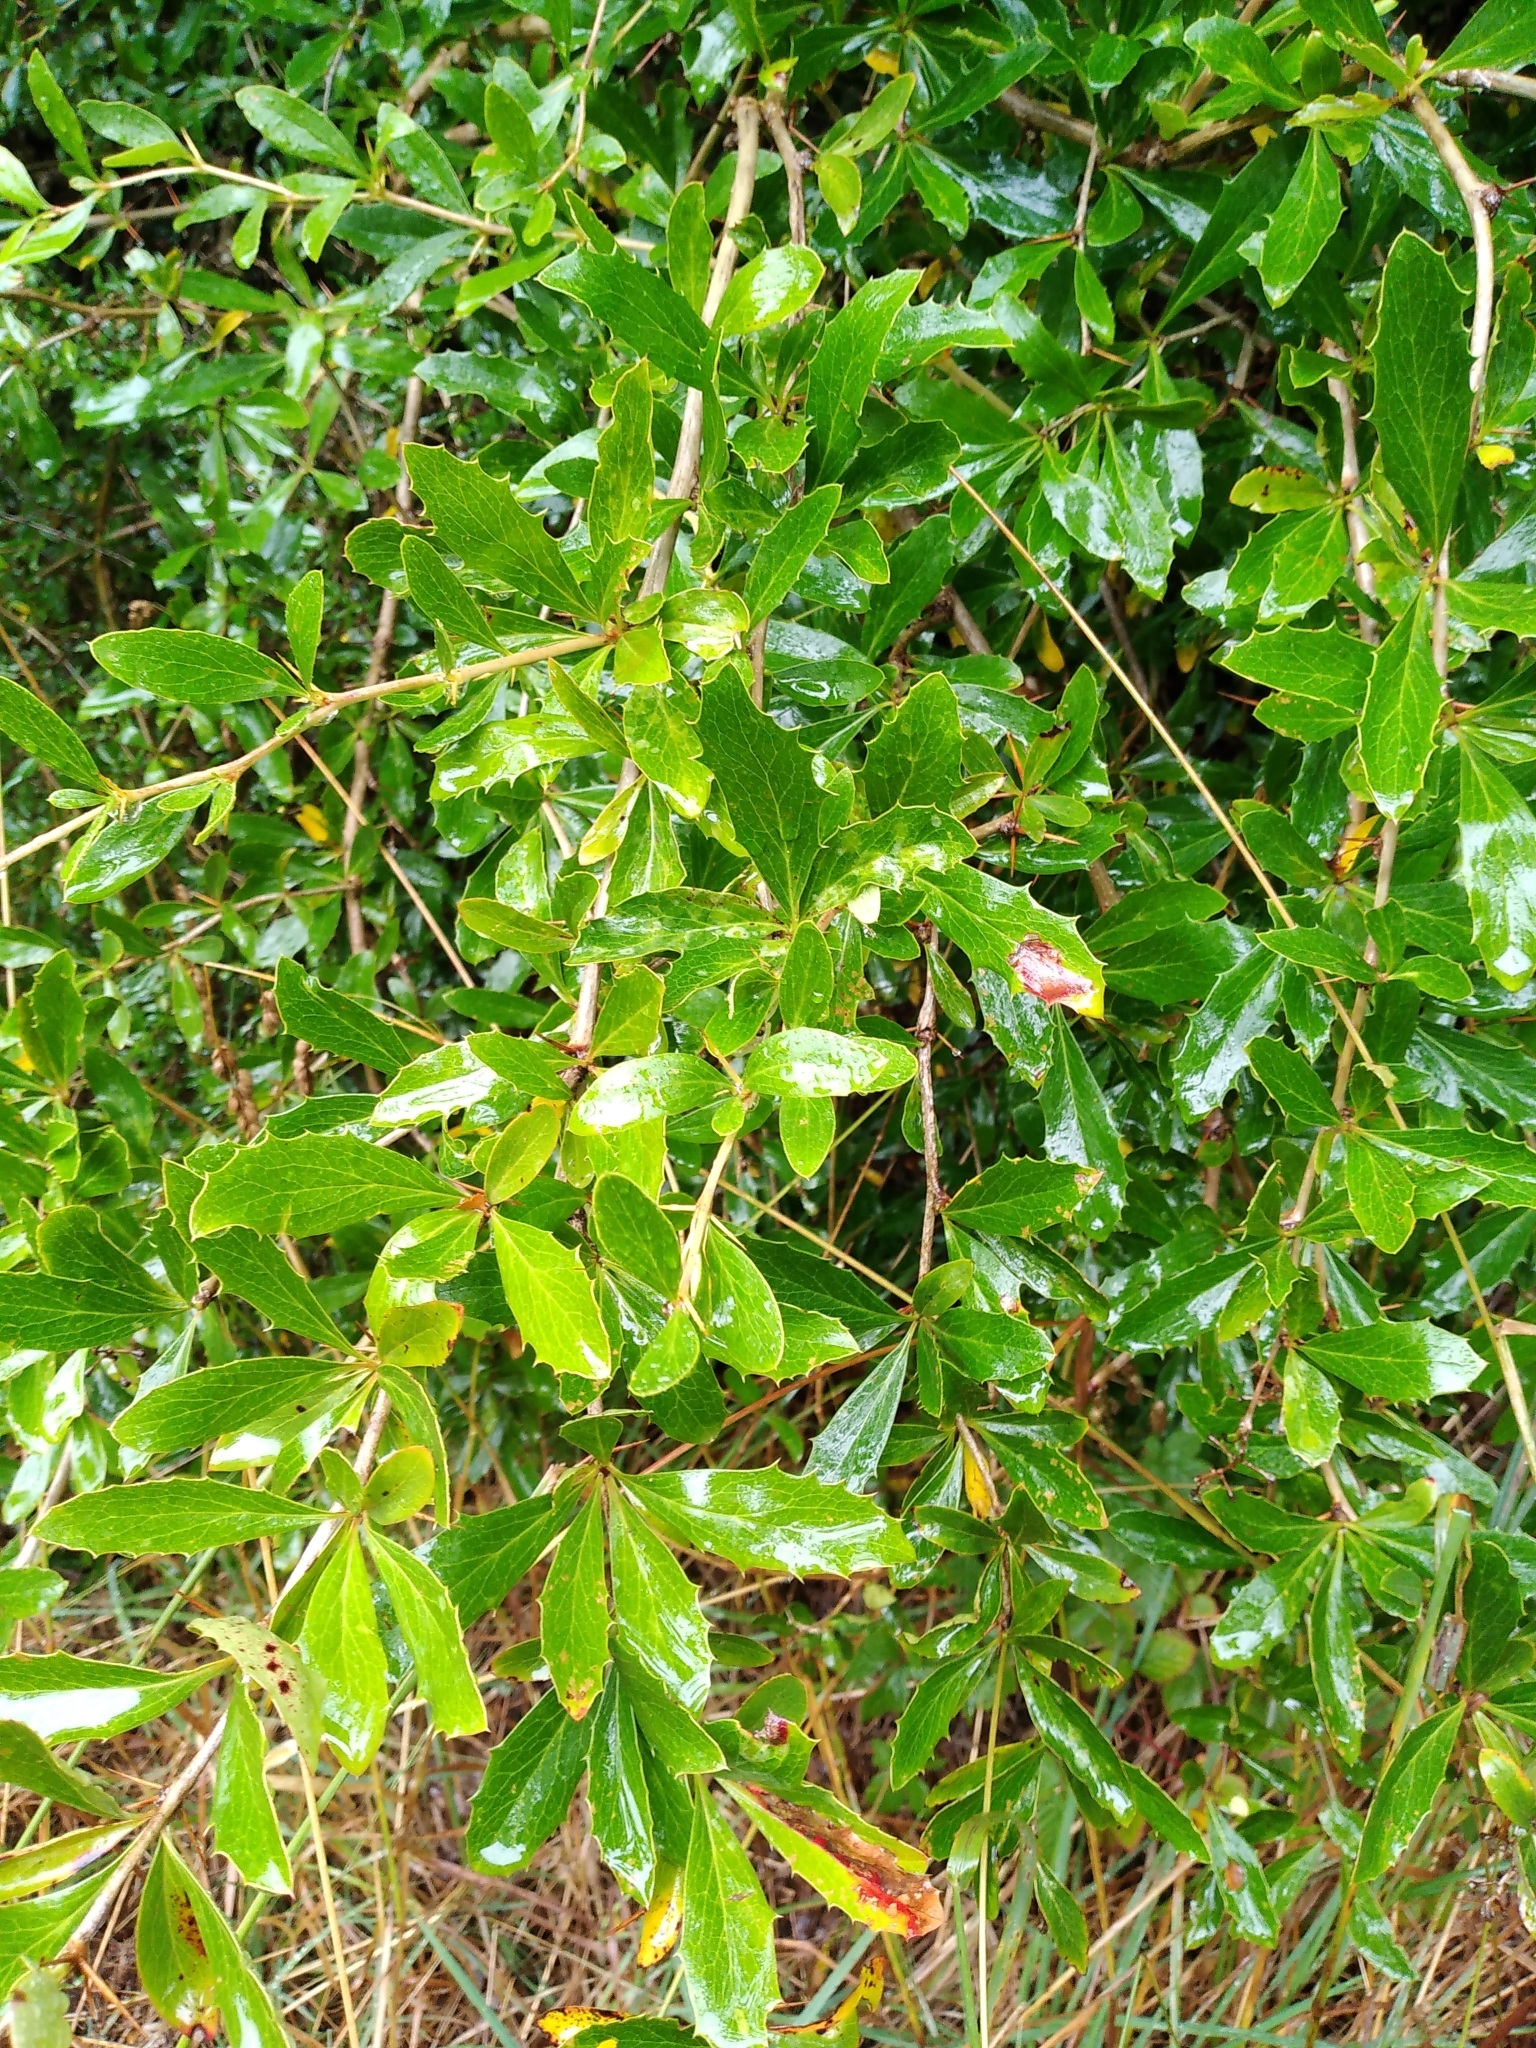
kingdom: Plantae
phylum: Tracheophyta
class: Magnoliopsida
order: Ranunculales
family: Berberidaceae
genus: Berberis
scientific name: Berberis glaucocarpa
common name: Great barberry
